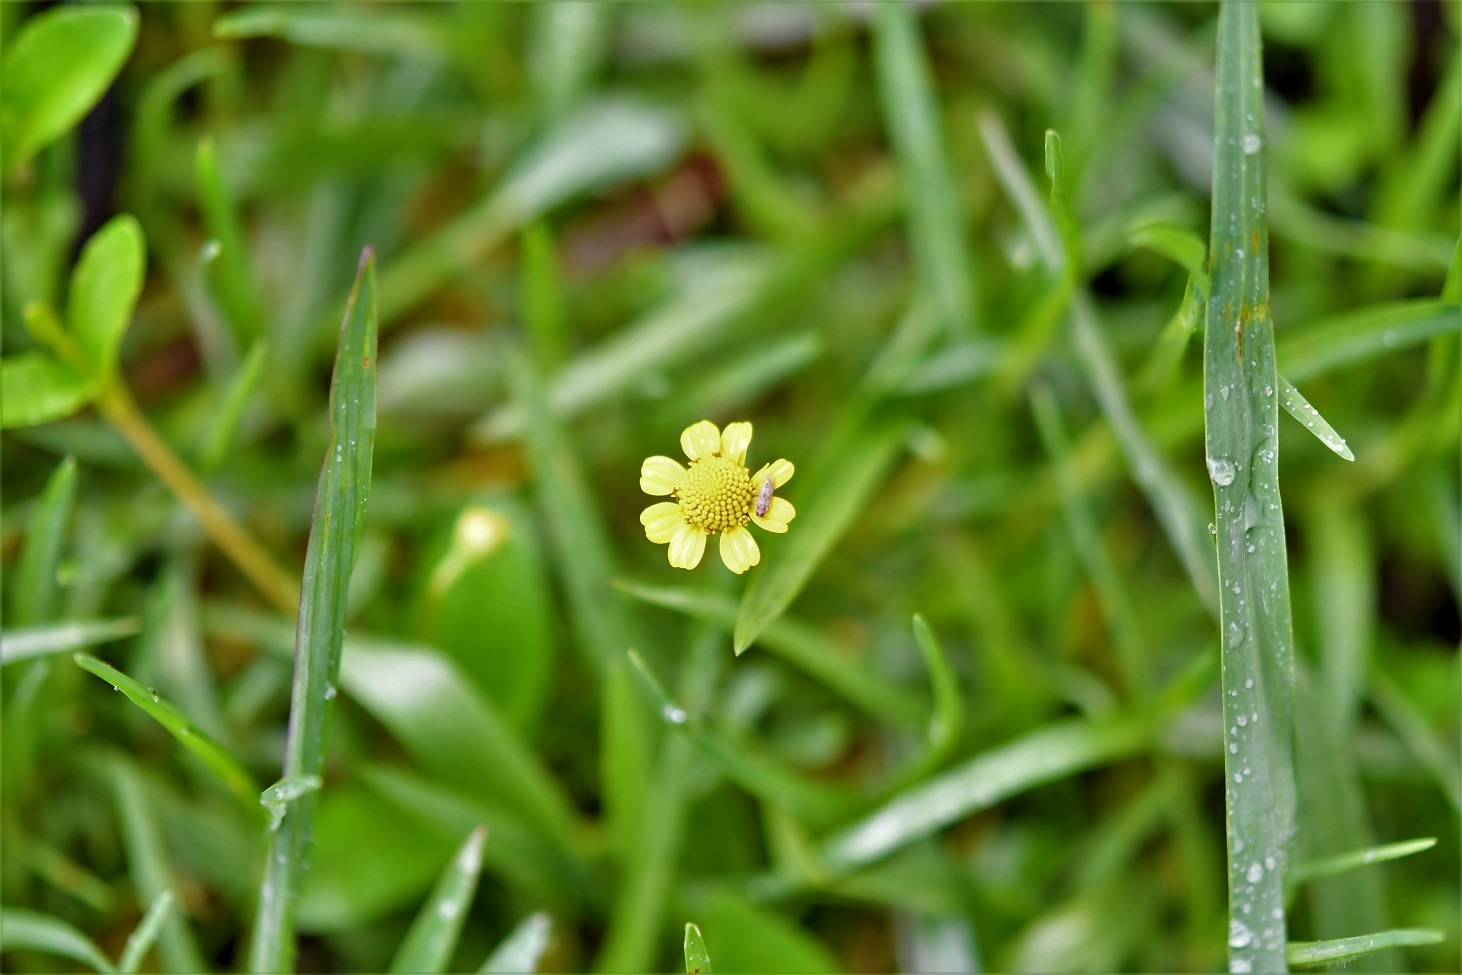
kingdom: Plantae
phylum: Tracheophyta
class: Magnoliopsida
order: Asterales
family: Asteraceae
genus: Heliopsis
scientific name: Heliopsis buphthalmoides
